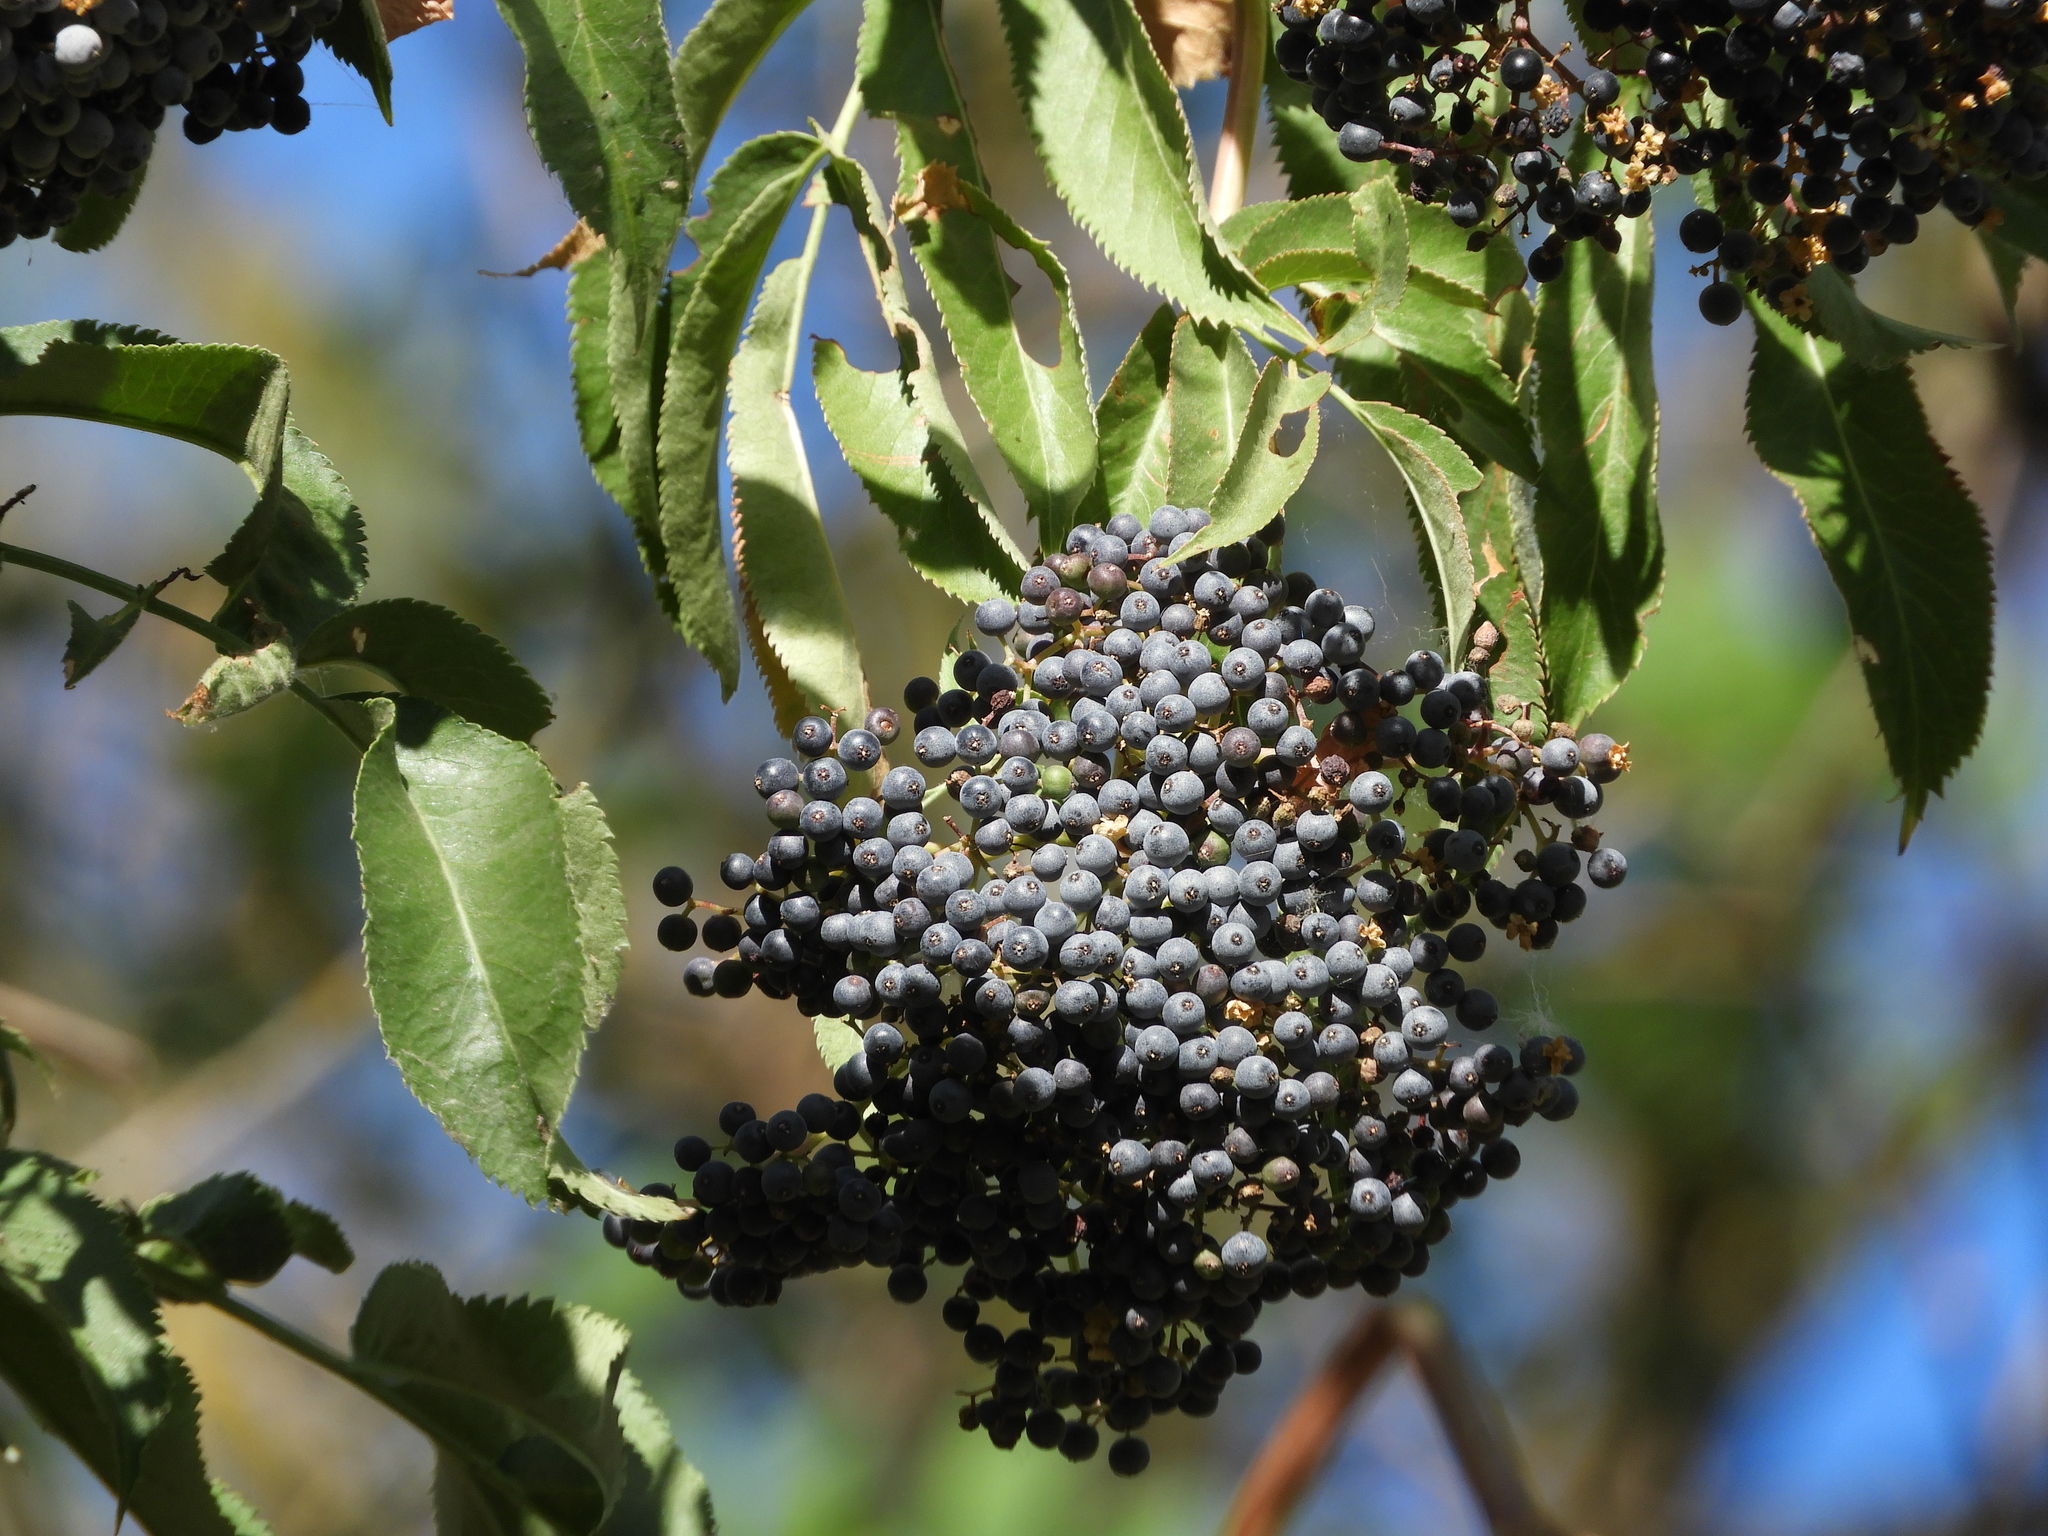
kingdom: Plantae
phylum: Tracheophyta
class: Magnoliopsida
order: Dipsacales
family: Viburnaceae
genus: Sambucus
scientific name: Sambucus cerulea
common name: Blue elder
